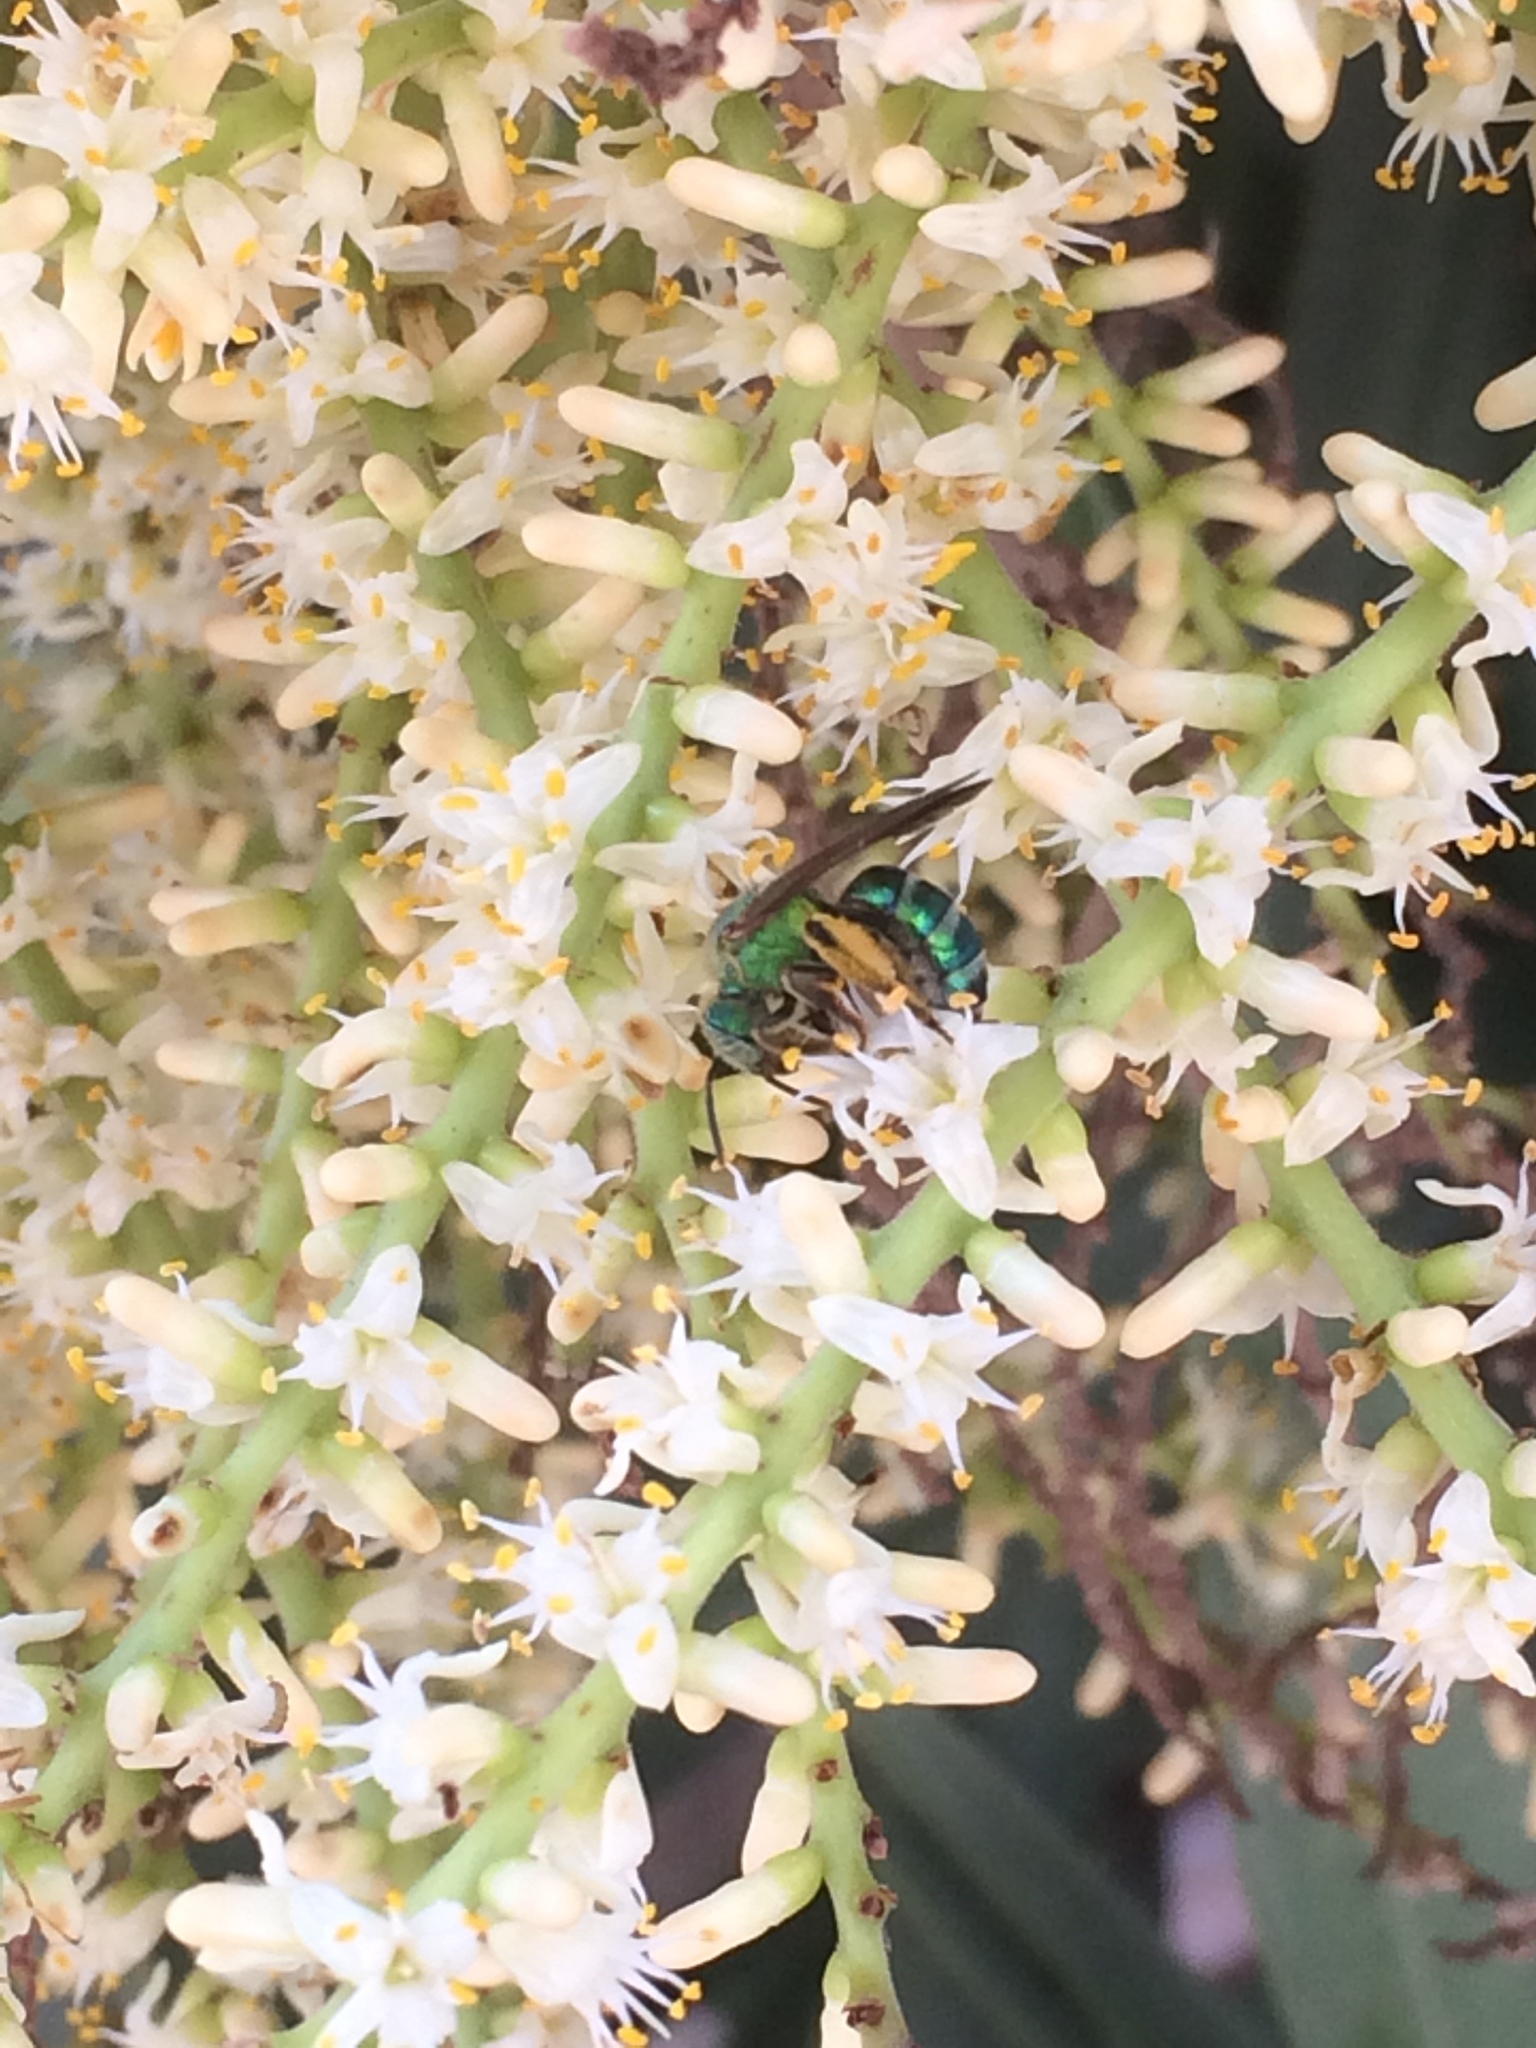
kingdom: Animalia
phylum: Arthropoda
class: Insecta
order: Hymenoptera
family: Halictidae
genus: Agapostemon
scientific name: Agapostemon splendens
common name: Brown-winged striped sweat bee
